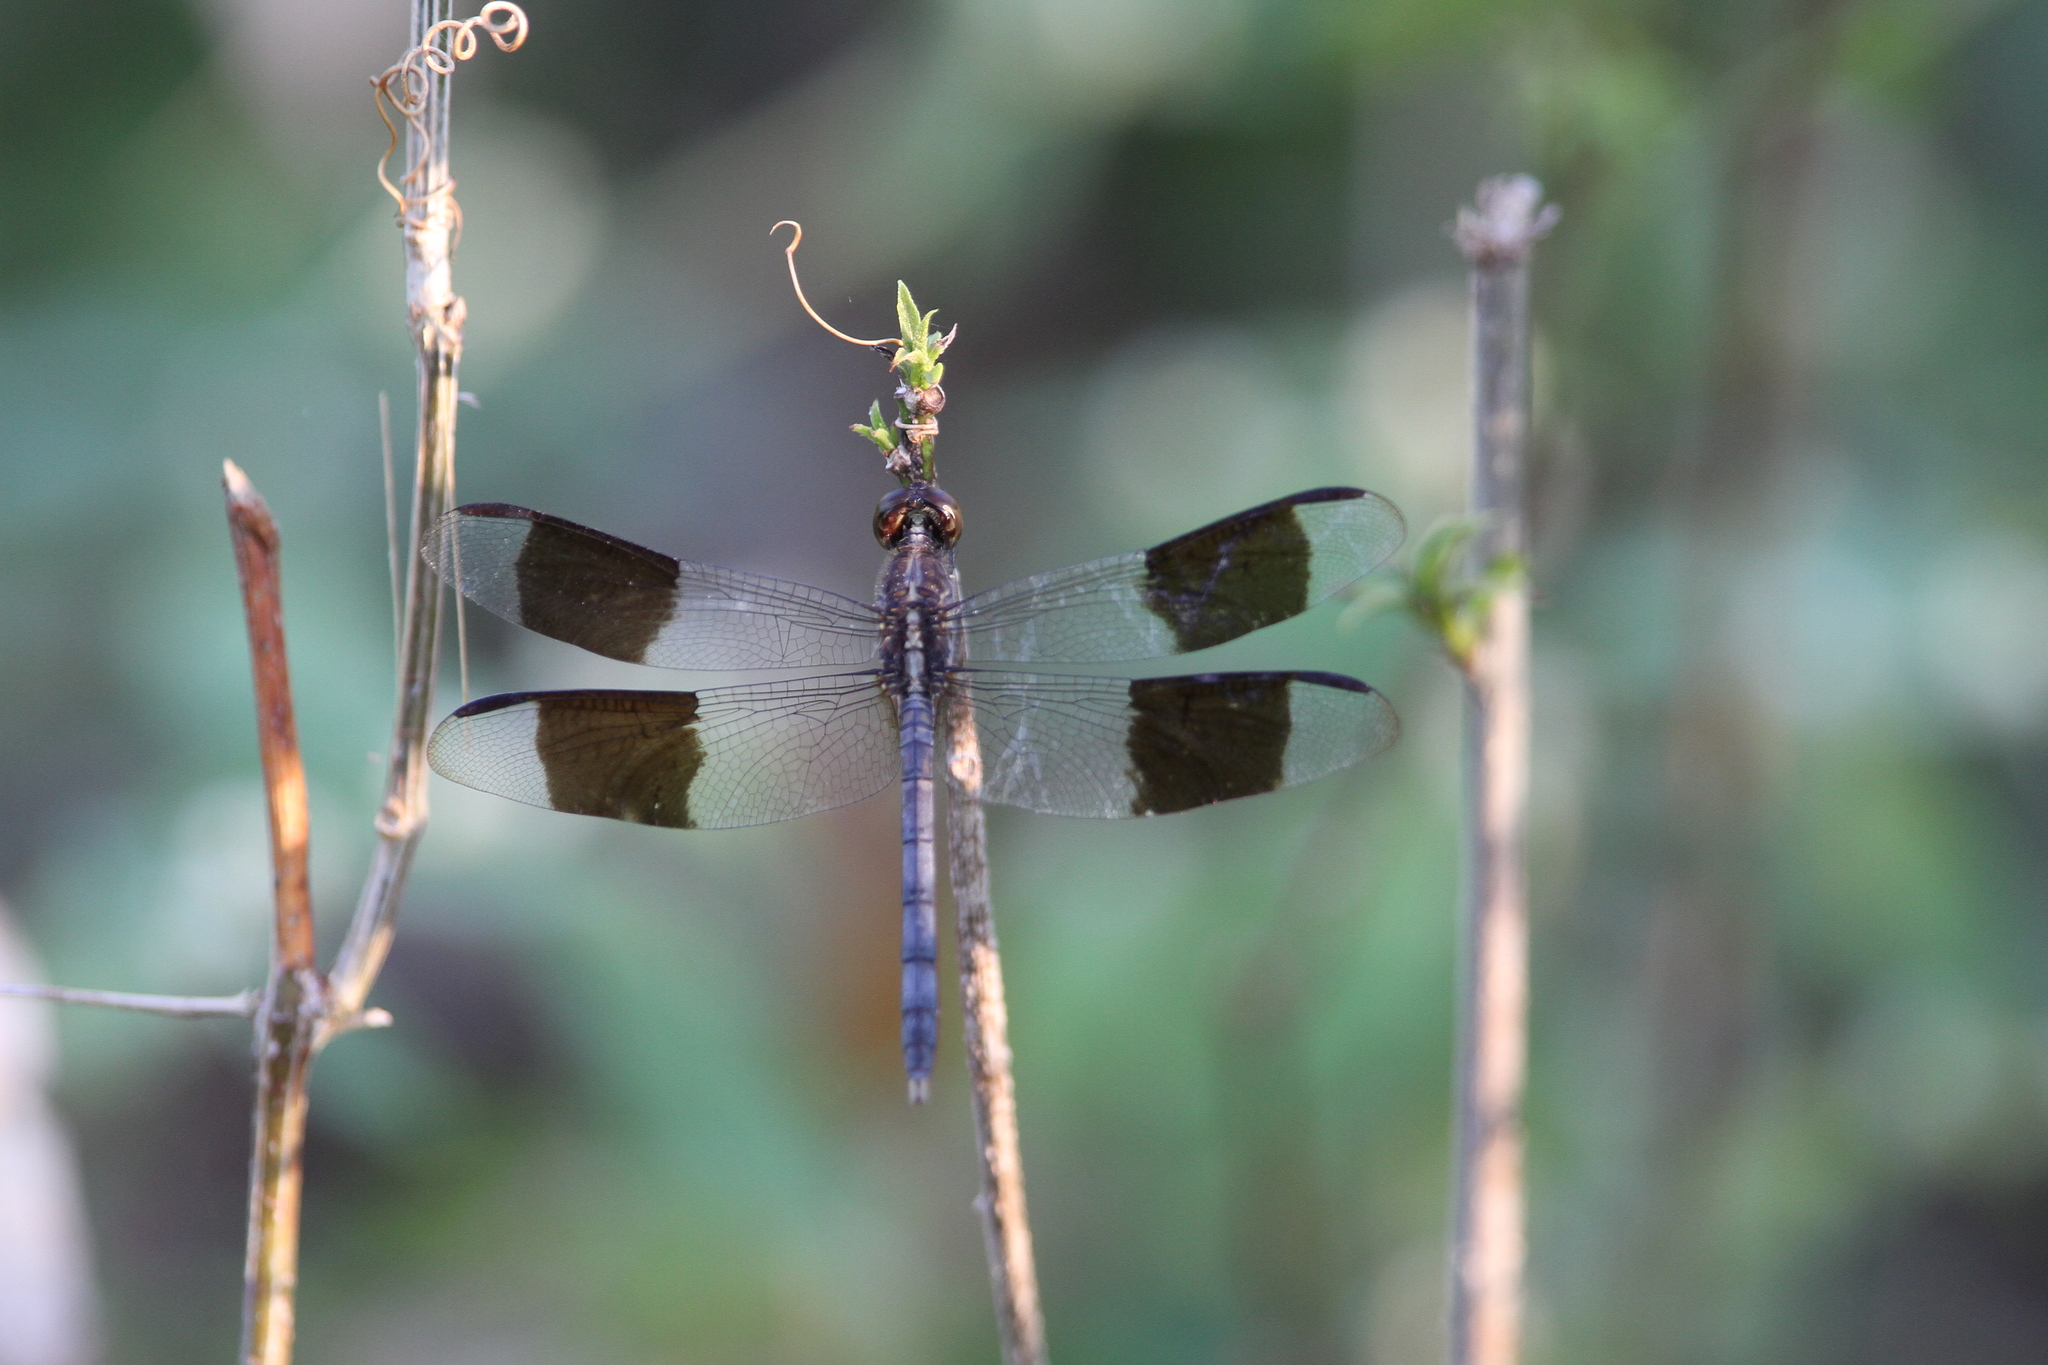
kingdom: Animalia
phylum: Arthropoda
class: Insecta
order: Odonata
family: Libellulidae
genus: Erythrodiplax
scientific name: Erythrodiplax umbrata
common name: Band-winged dragonlet
